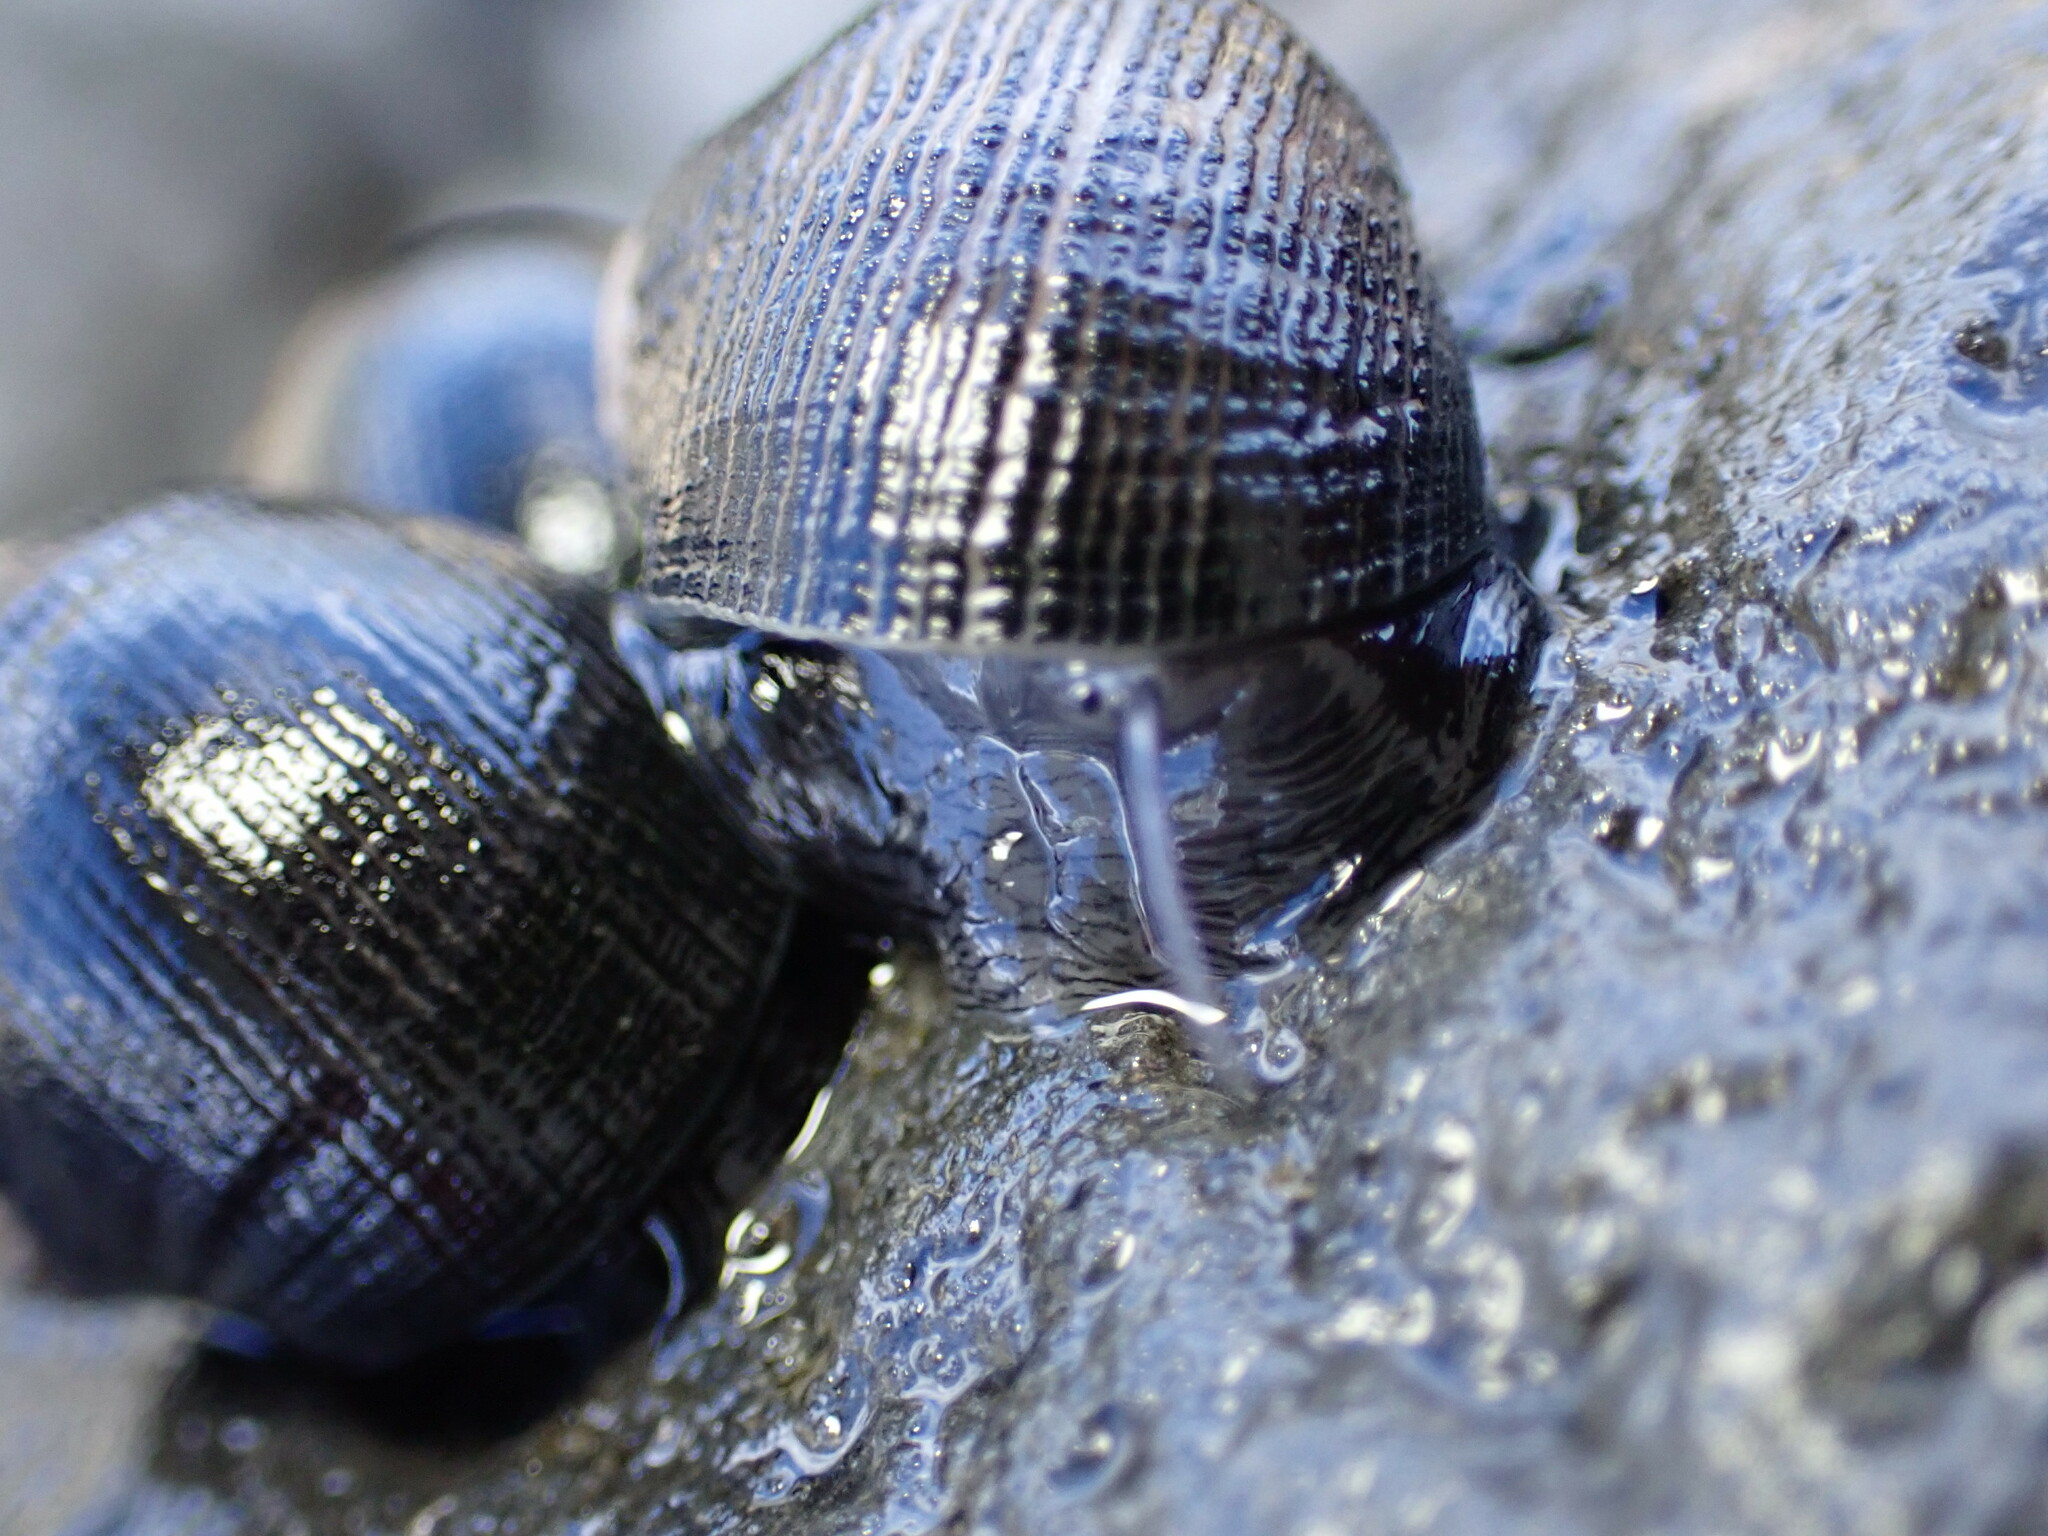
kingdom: Animalia
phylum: Mollusca
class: Gastropoda
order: Cycloneritida
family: Neritidae
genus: Nerita
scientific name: Nerita picea
